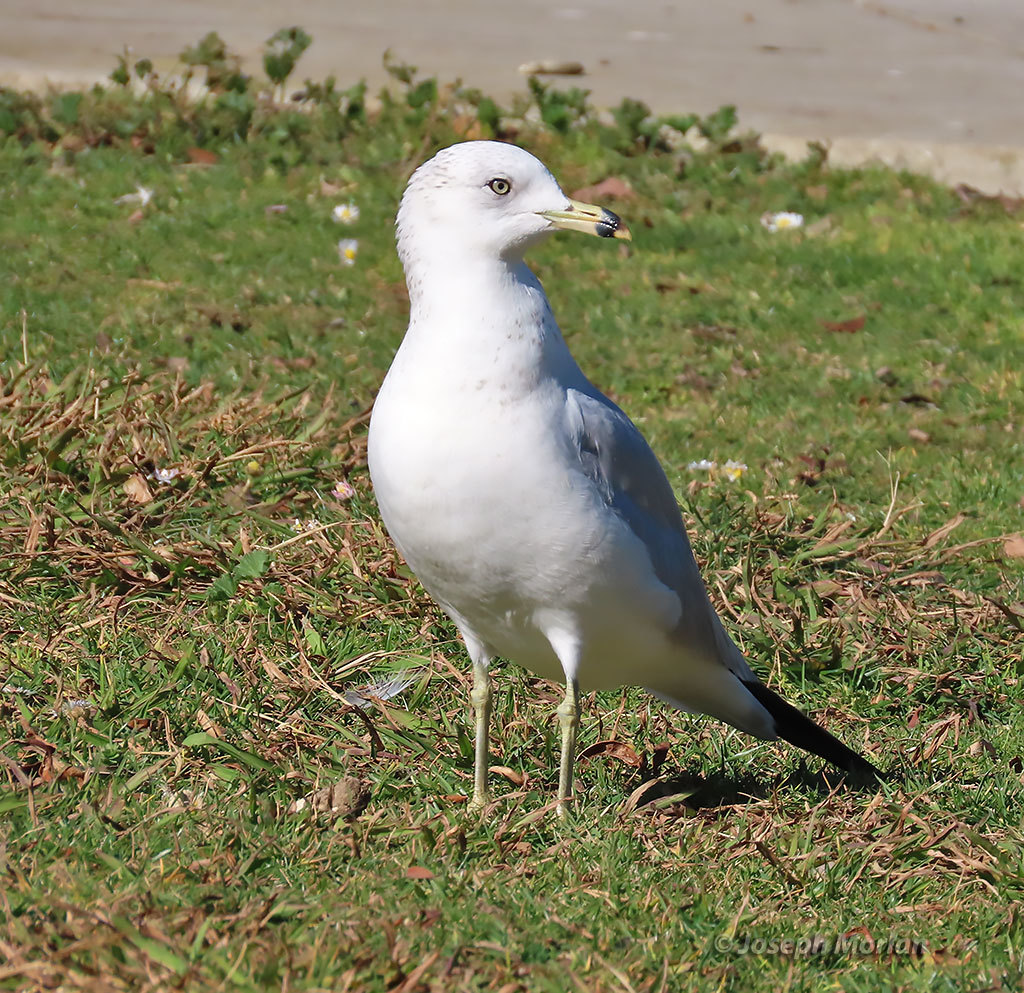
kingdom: Animalia
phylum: Chordata
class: Aves
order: Charadriiformes
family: Laridae
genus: Larus
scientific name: Larus delawarensis
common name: Ring-billed gull
